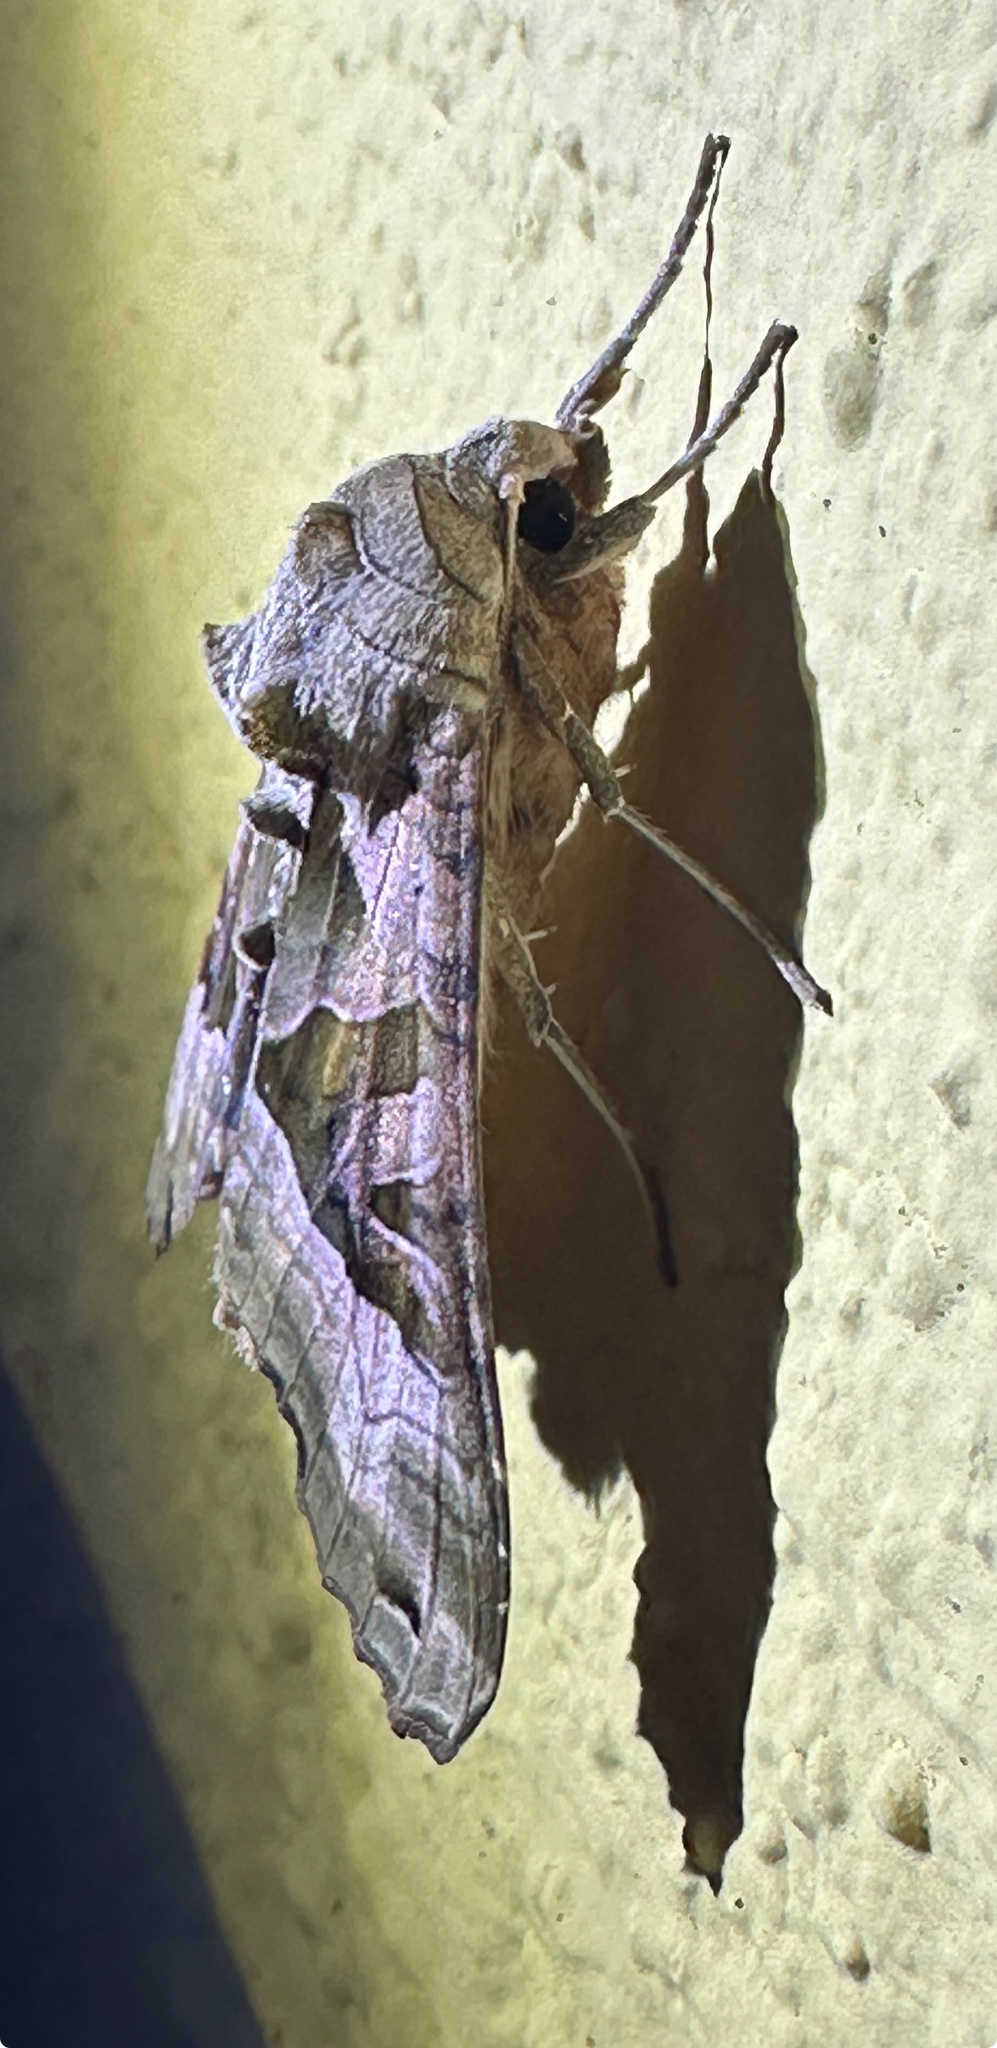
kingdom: Animalia
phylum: Arthropoda
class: Insecta
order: Lepidoptera
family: Noctuidae
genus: Phlogophora
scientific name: Phlogophora meticulosa
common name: Angle shades
